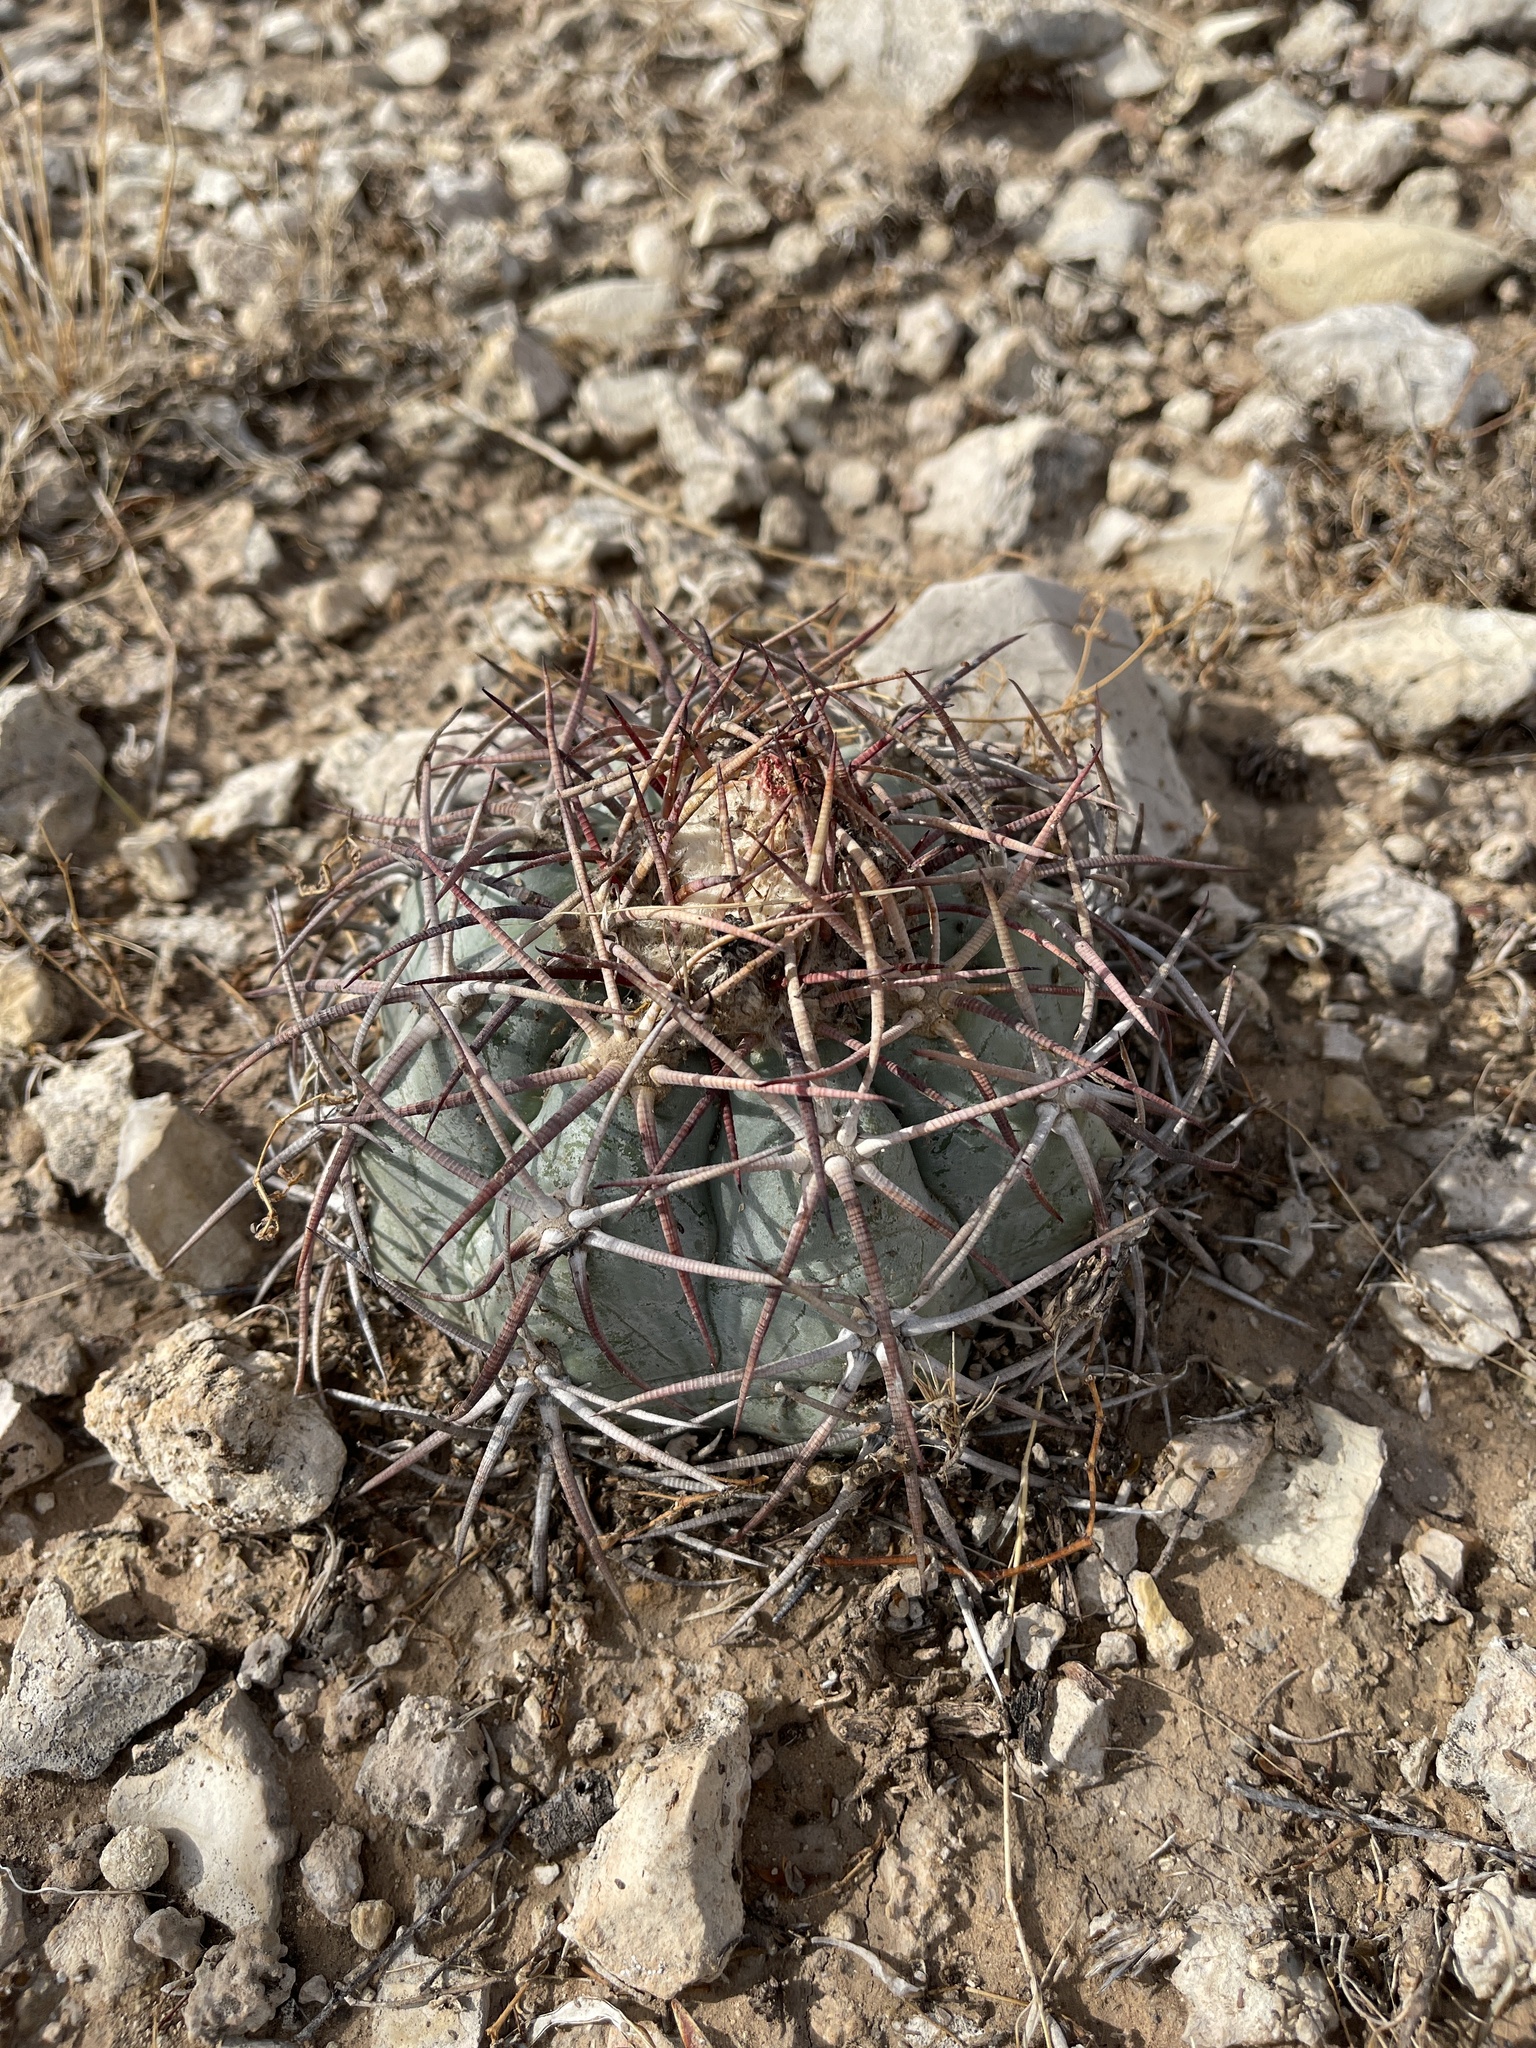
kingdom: Plantae
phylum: Tracheophyta
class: Magnoliopsida
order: Caryophyllales
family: Cactaceae
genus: Echinocactus
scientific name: Echinocactus horizonthalonius
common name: Devilshead
